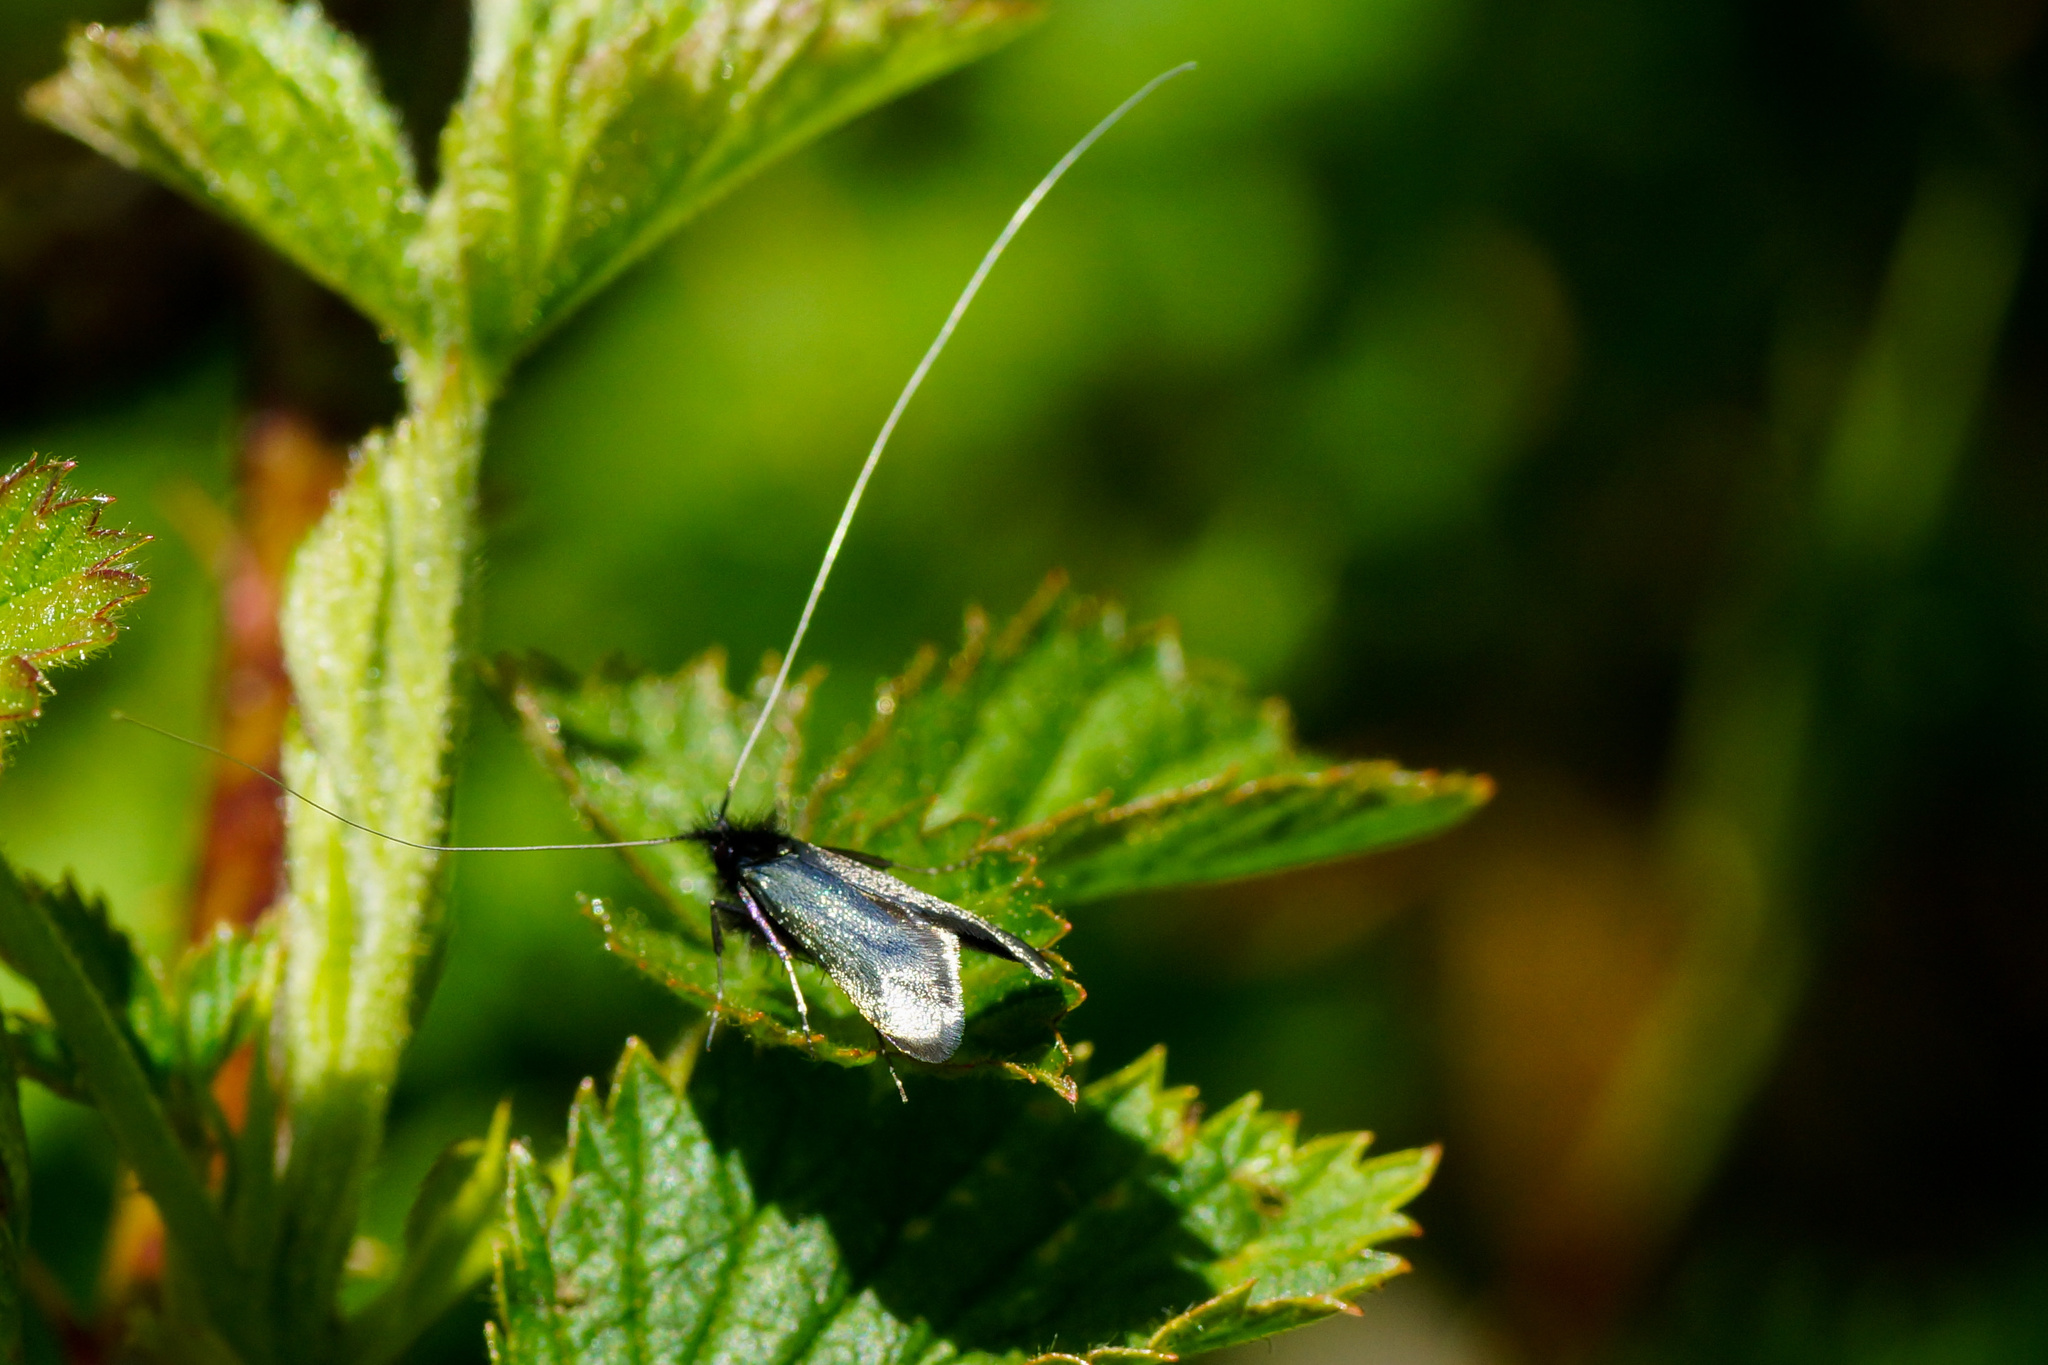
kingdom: Animalia
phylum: Arthropoda
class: Insecta
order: Lepidoptera
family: Adelidae
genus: Adela
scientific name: Adela viridella
